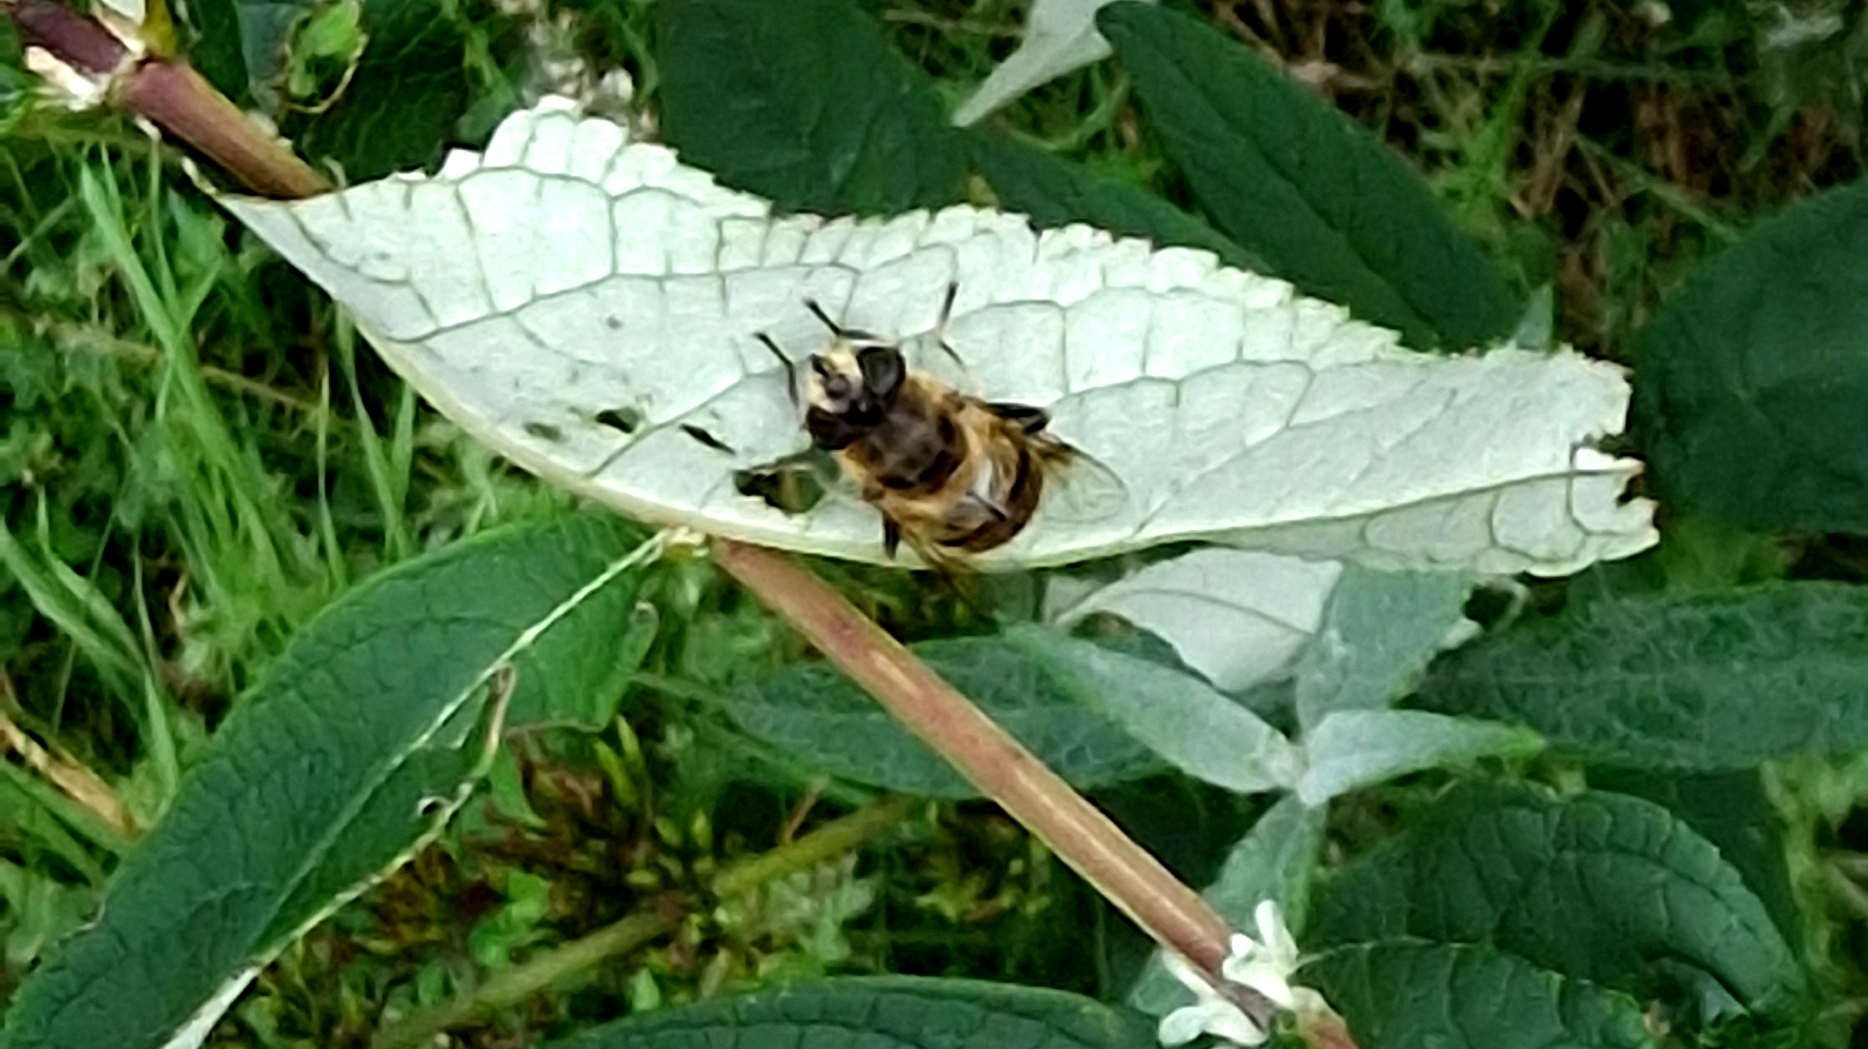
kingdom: Animalia
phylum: Arthropoda
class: Insecta
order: Diptera
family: Syrphidae
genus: Eristalis
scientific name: Eristalis tenax
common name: Drone fly
